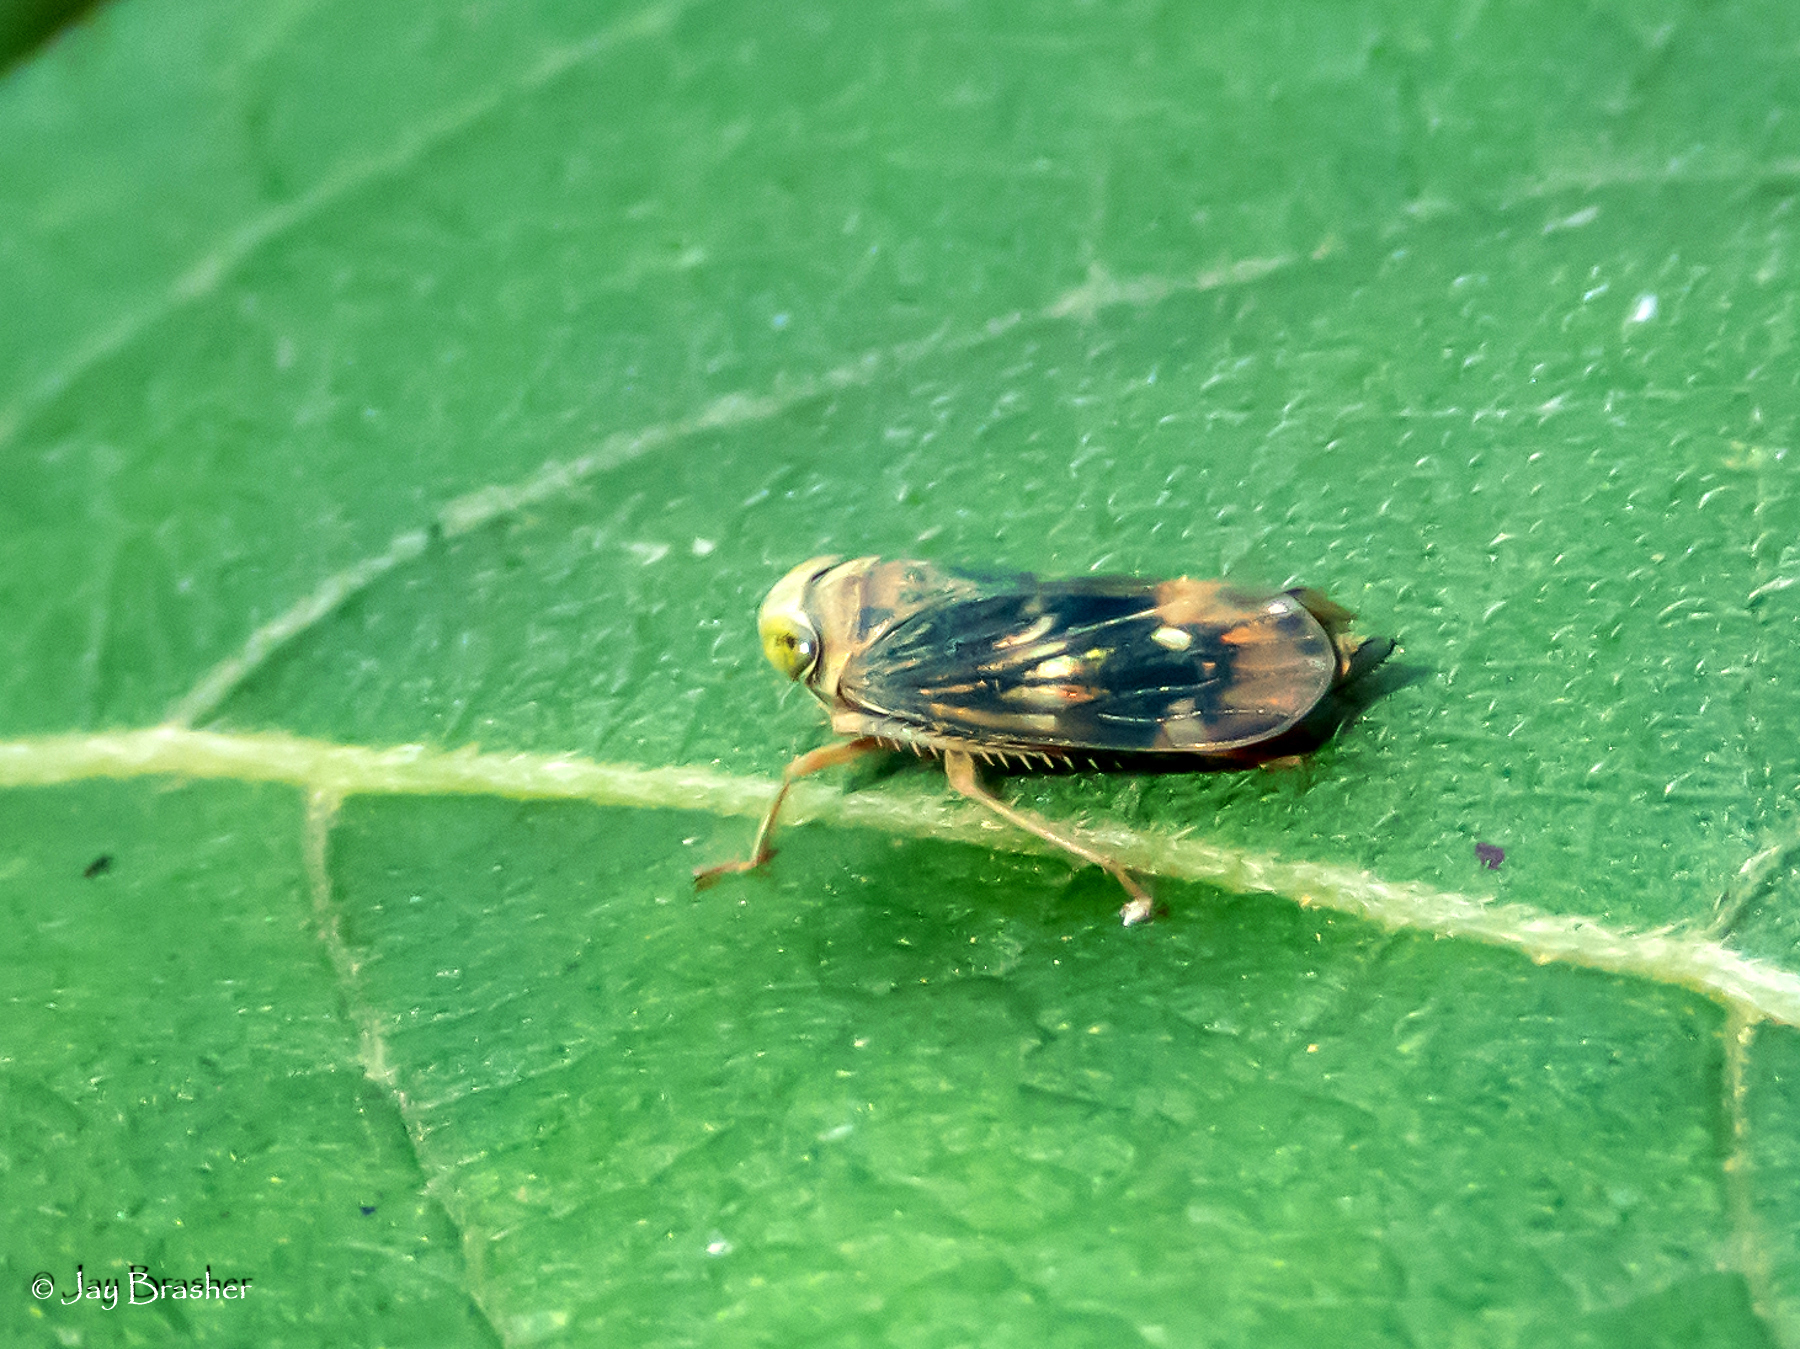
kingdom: Animalia
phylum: Arthropoda
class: Insecta
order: Hemiptera
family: Cicadellidae
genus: Jikradia
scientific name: Jikradia olitoria
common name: Coppery leafhopper
